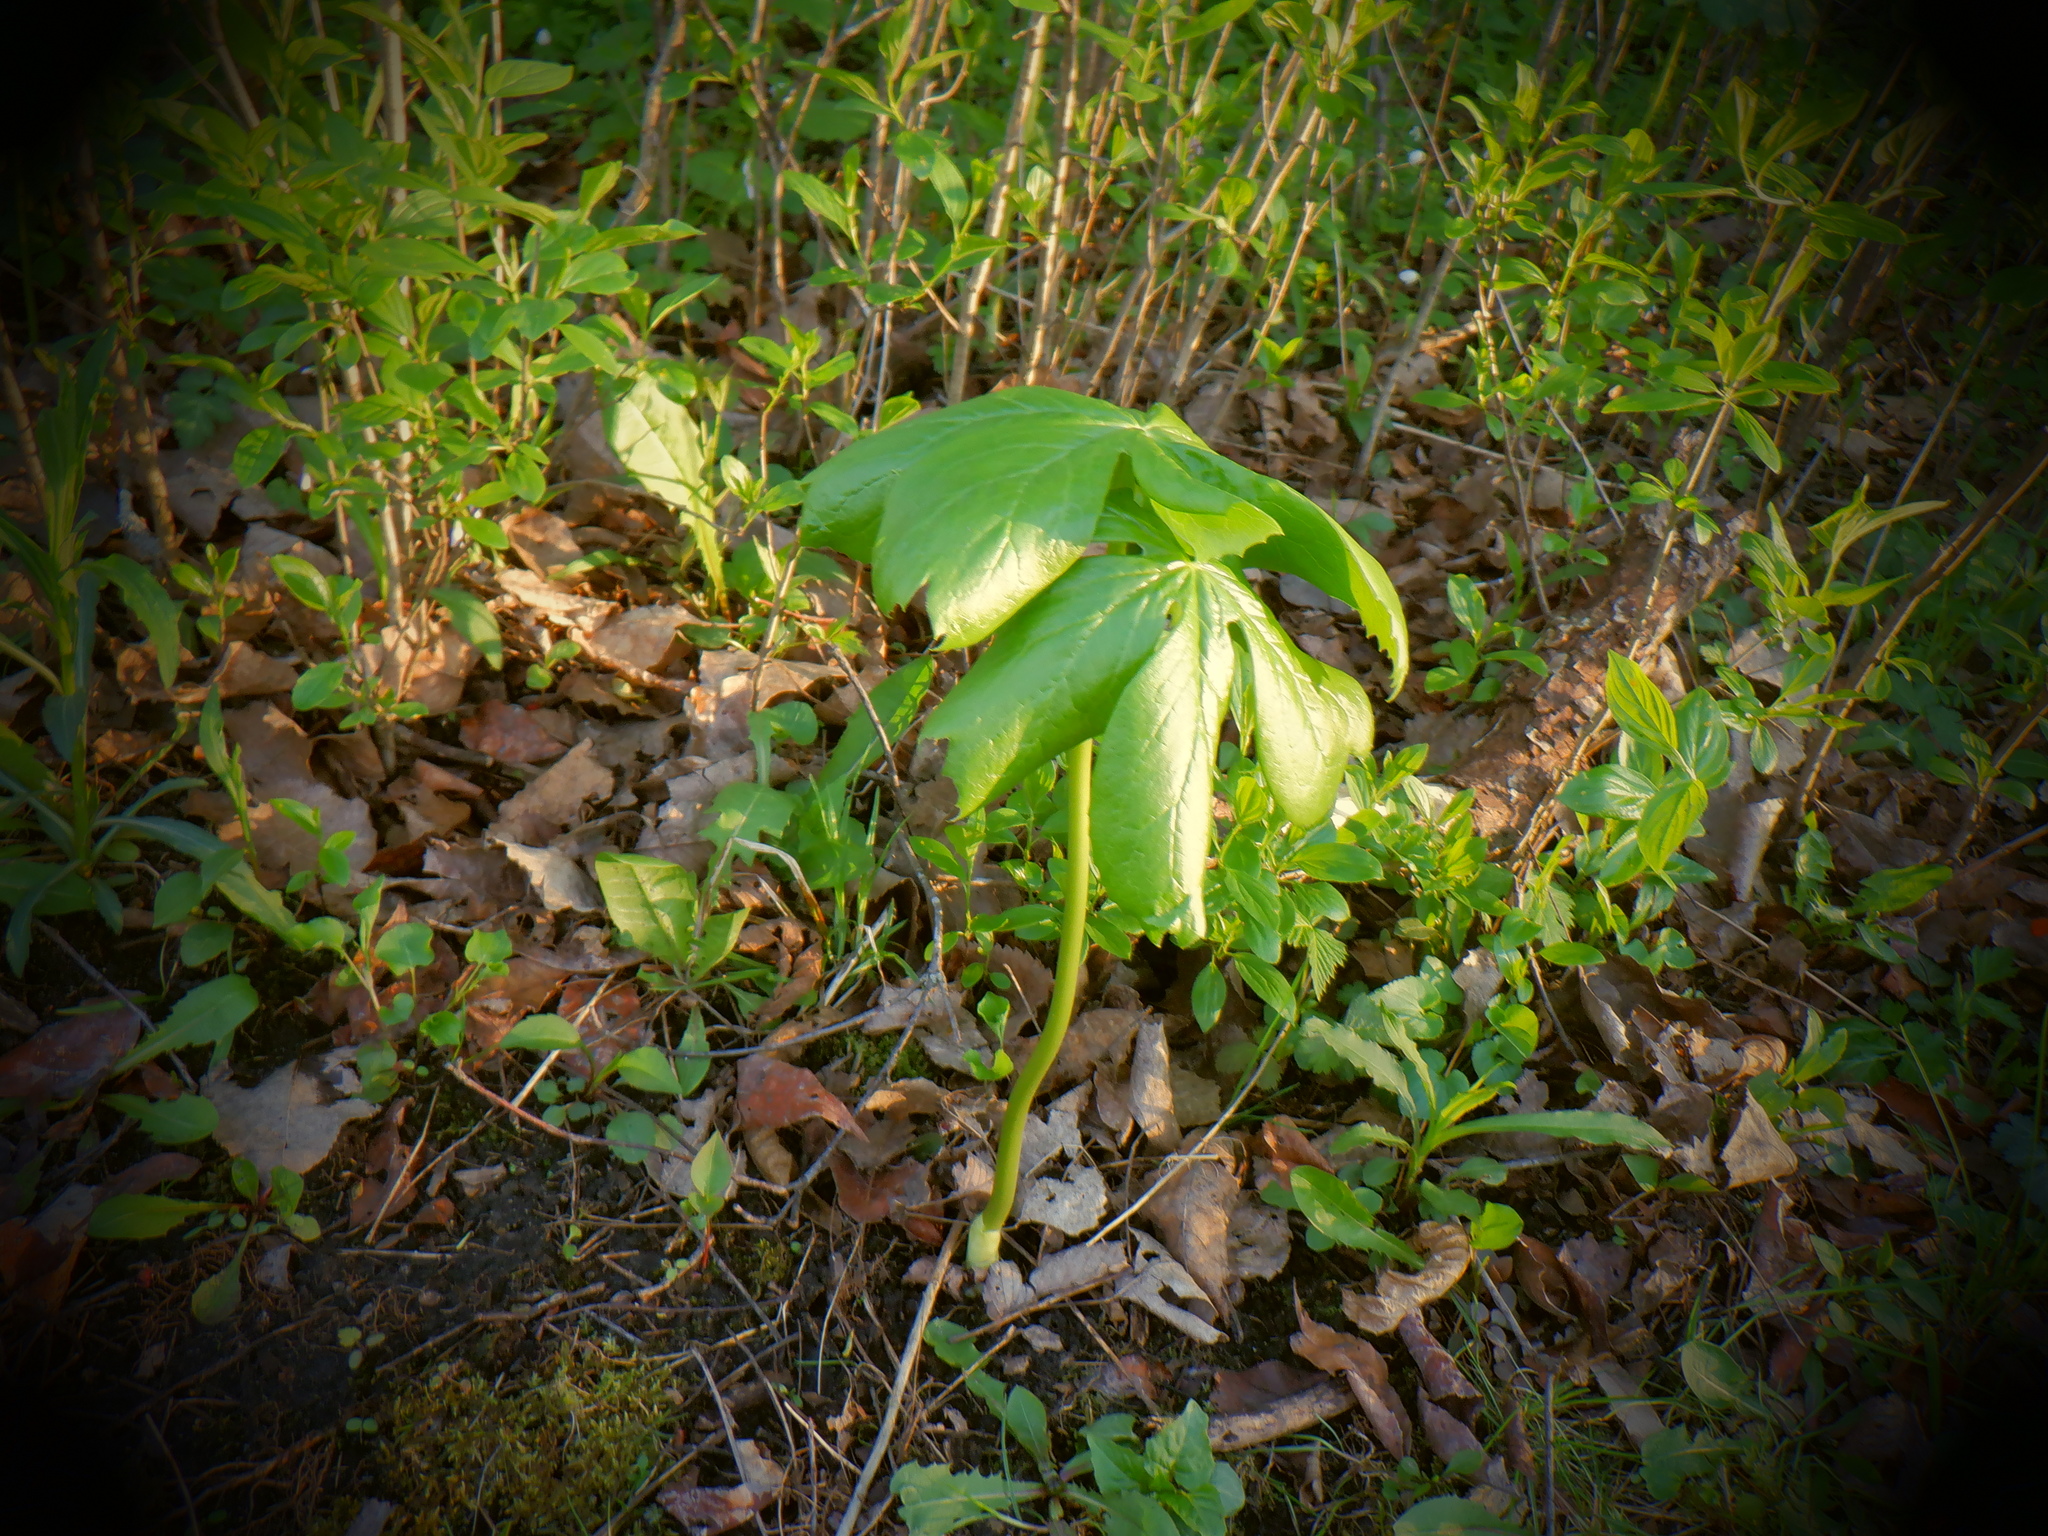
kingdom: Plantae
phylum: Tracheophyta
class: Magnoliopsida
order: Ranunculales
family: Berberidaceae
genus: Podophyllum
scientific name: Podophyllum peltatum
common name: Wild mandrake
